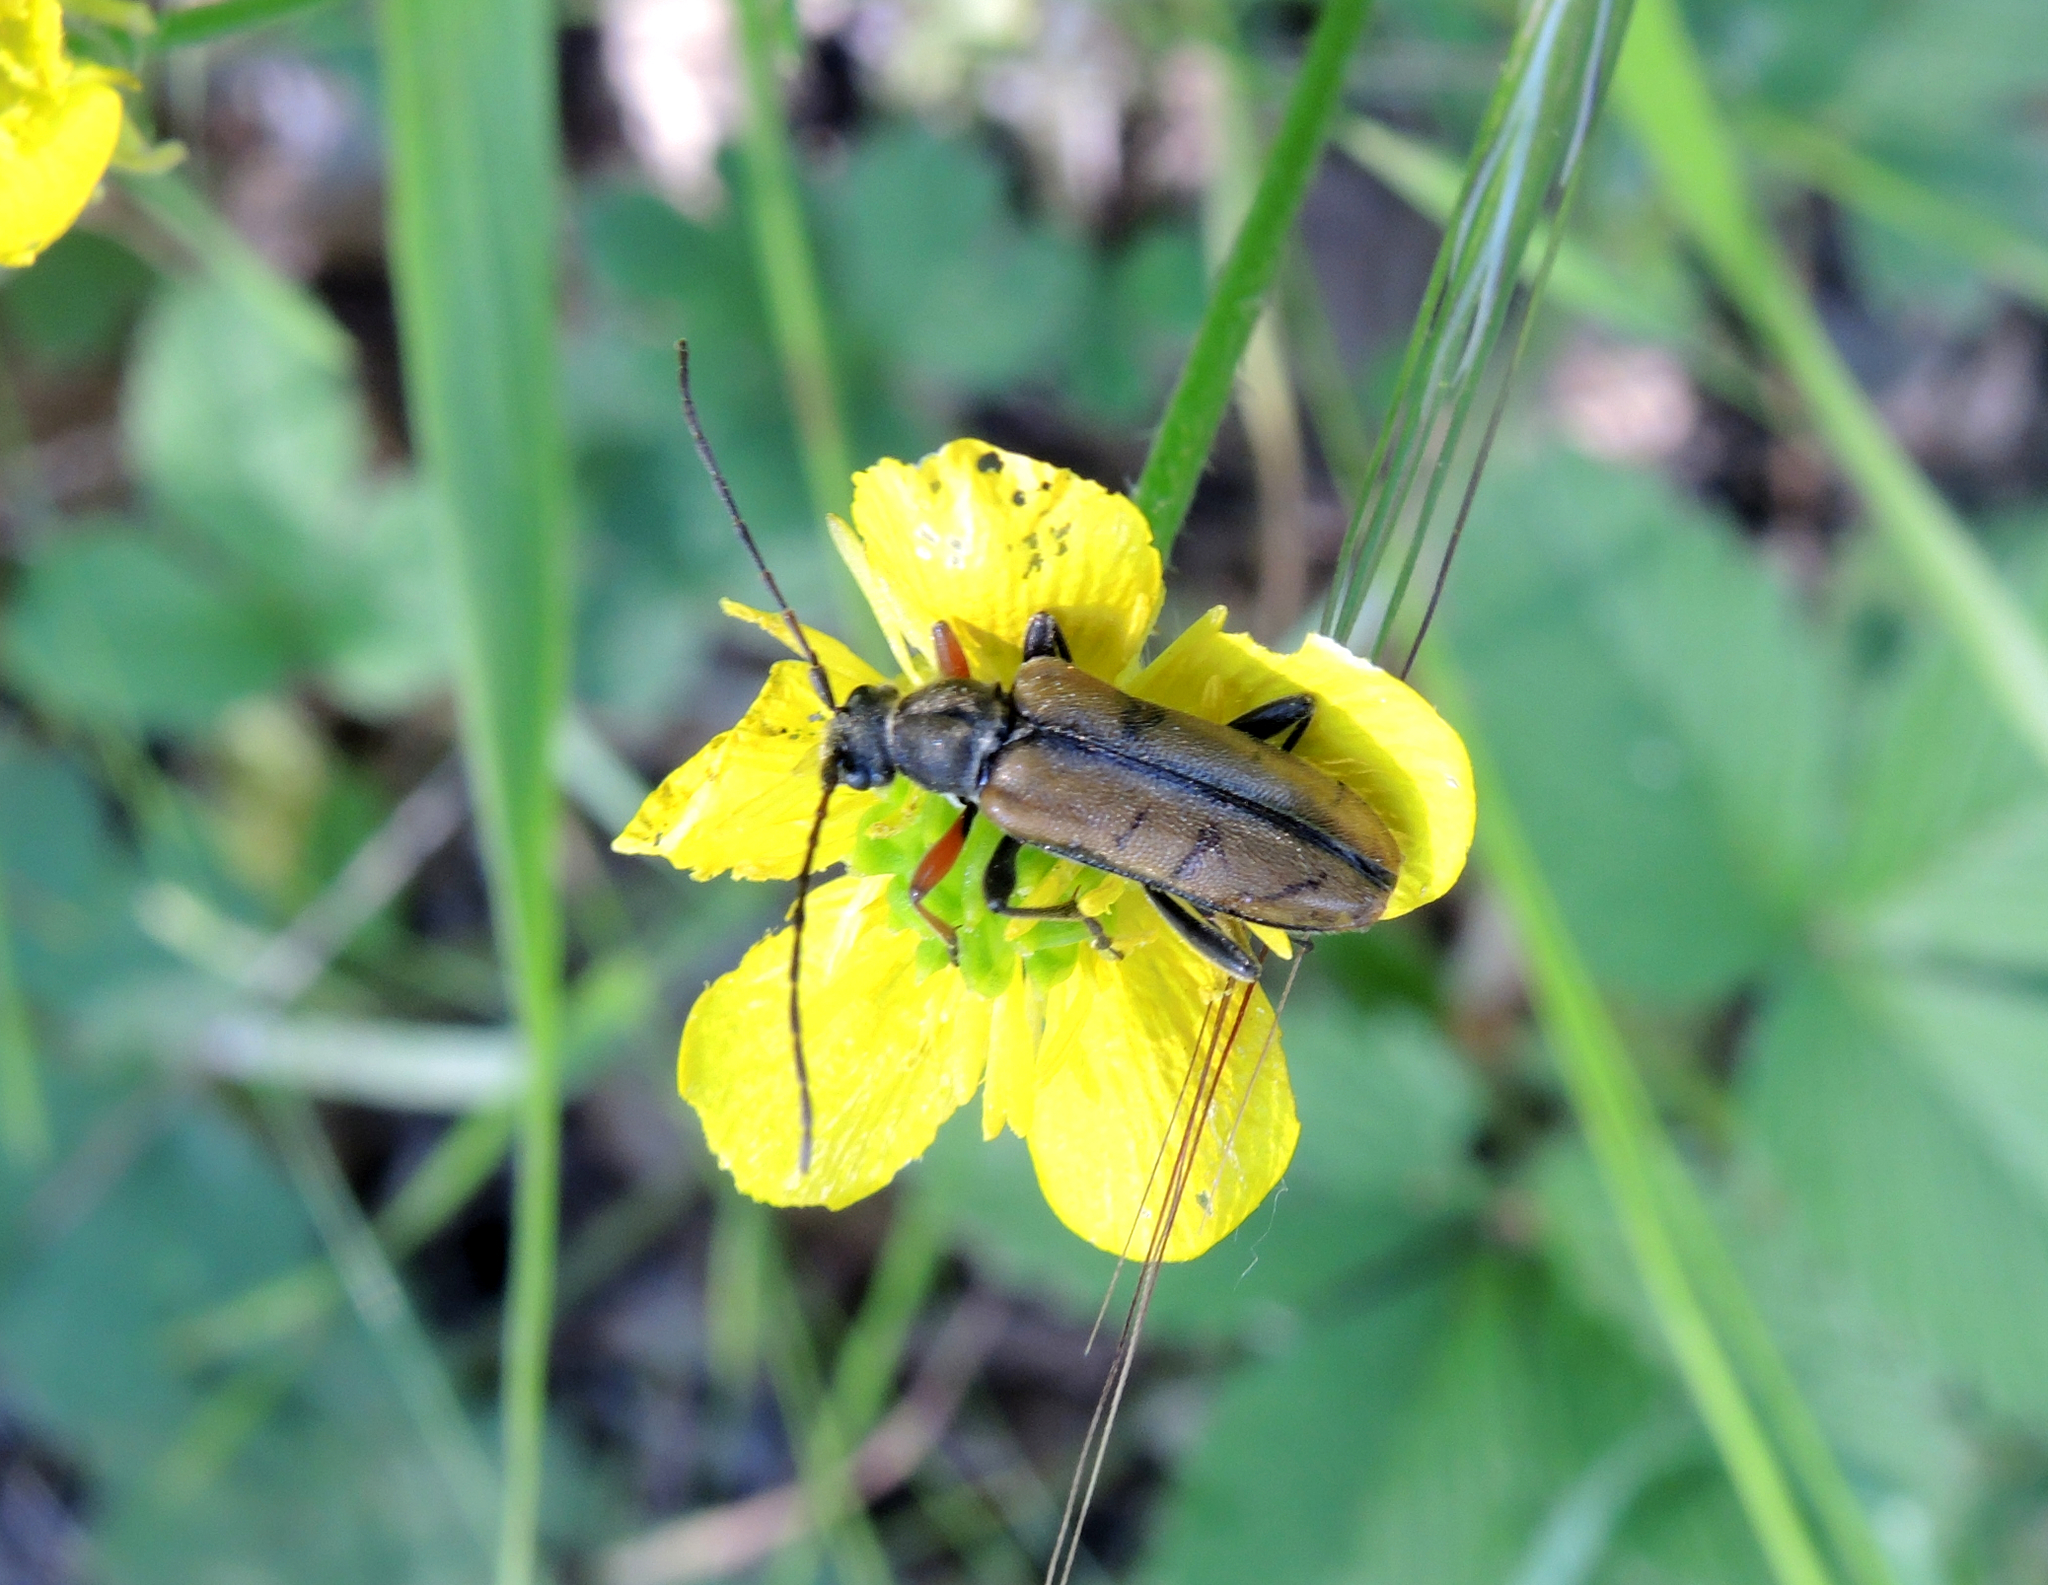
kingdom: Animalia
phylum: Arthropoda
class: Insecta
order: Coleoptera
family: Cerambycidae
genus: Cortodera
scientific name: Cortodera flavimana
